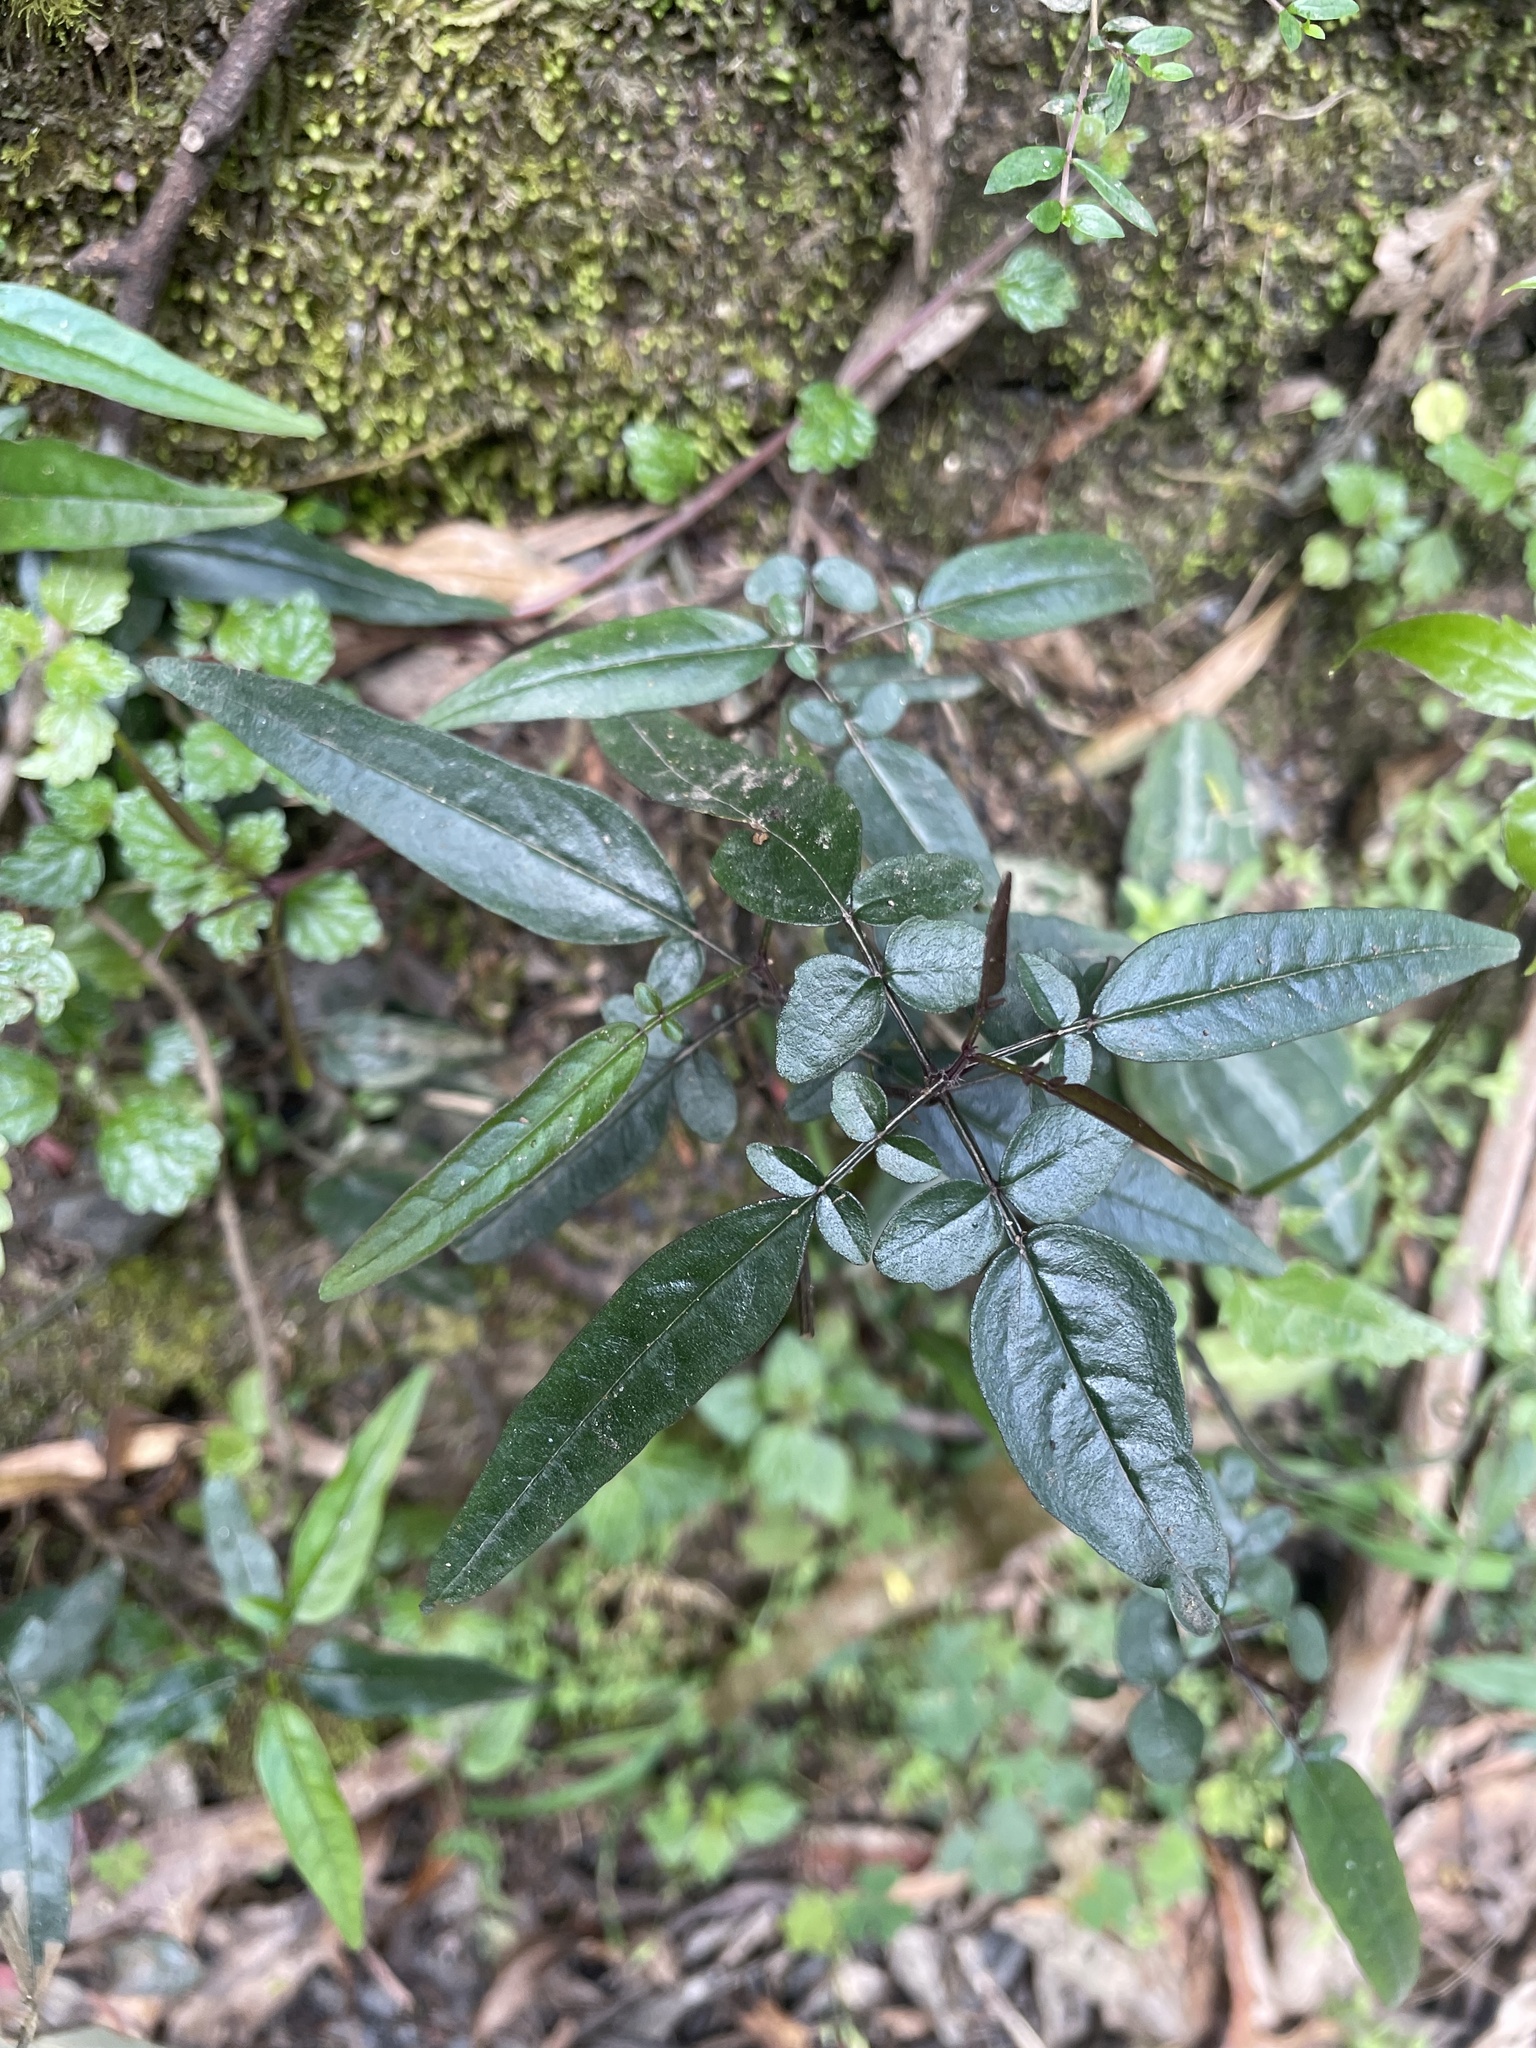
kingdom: Plantae
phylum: Tracheophyta
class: Magnoliopsida
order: Lamiales
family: Bignoniaceae
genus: Pandorea
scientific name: Pandorea pandorana
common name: Wonga-wonga-vine
